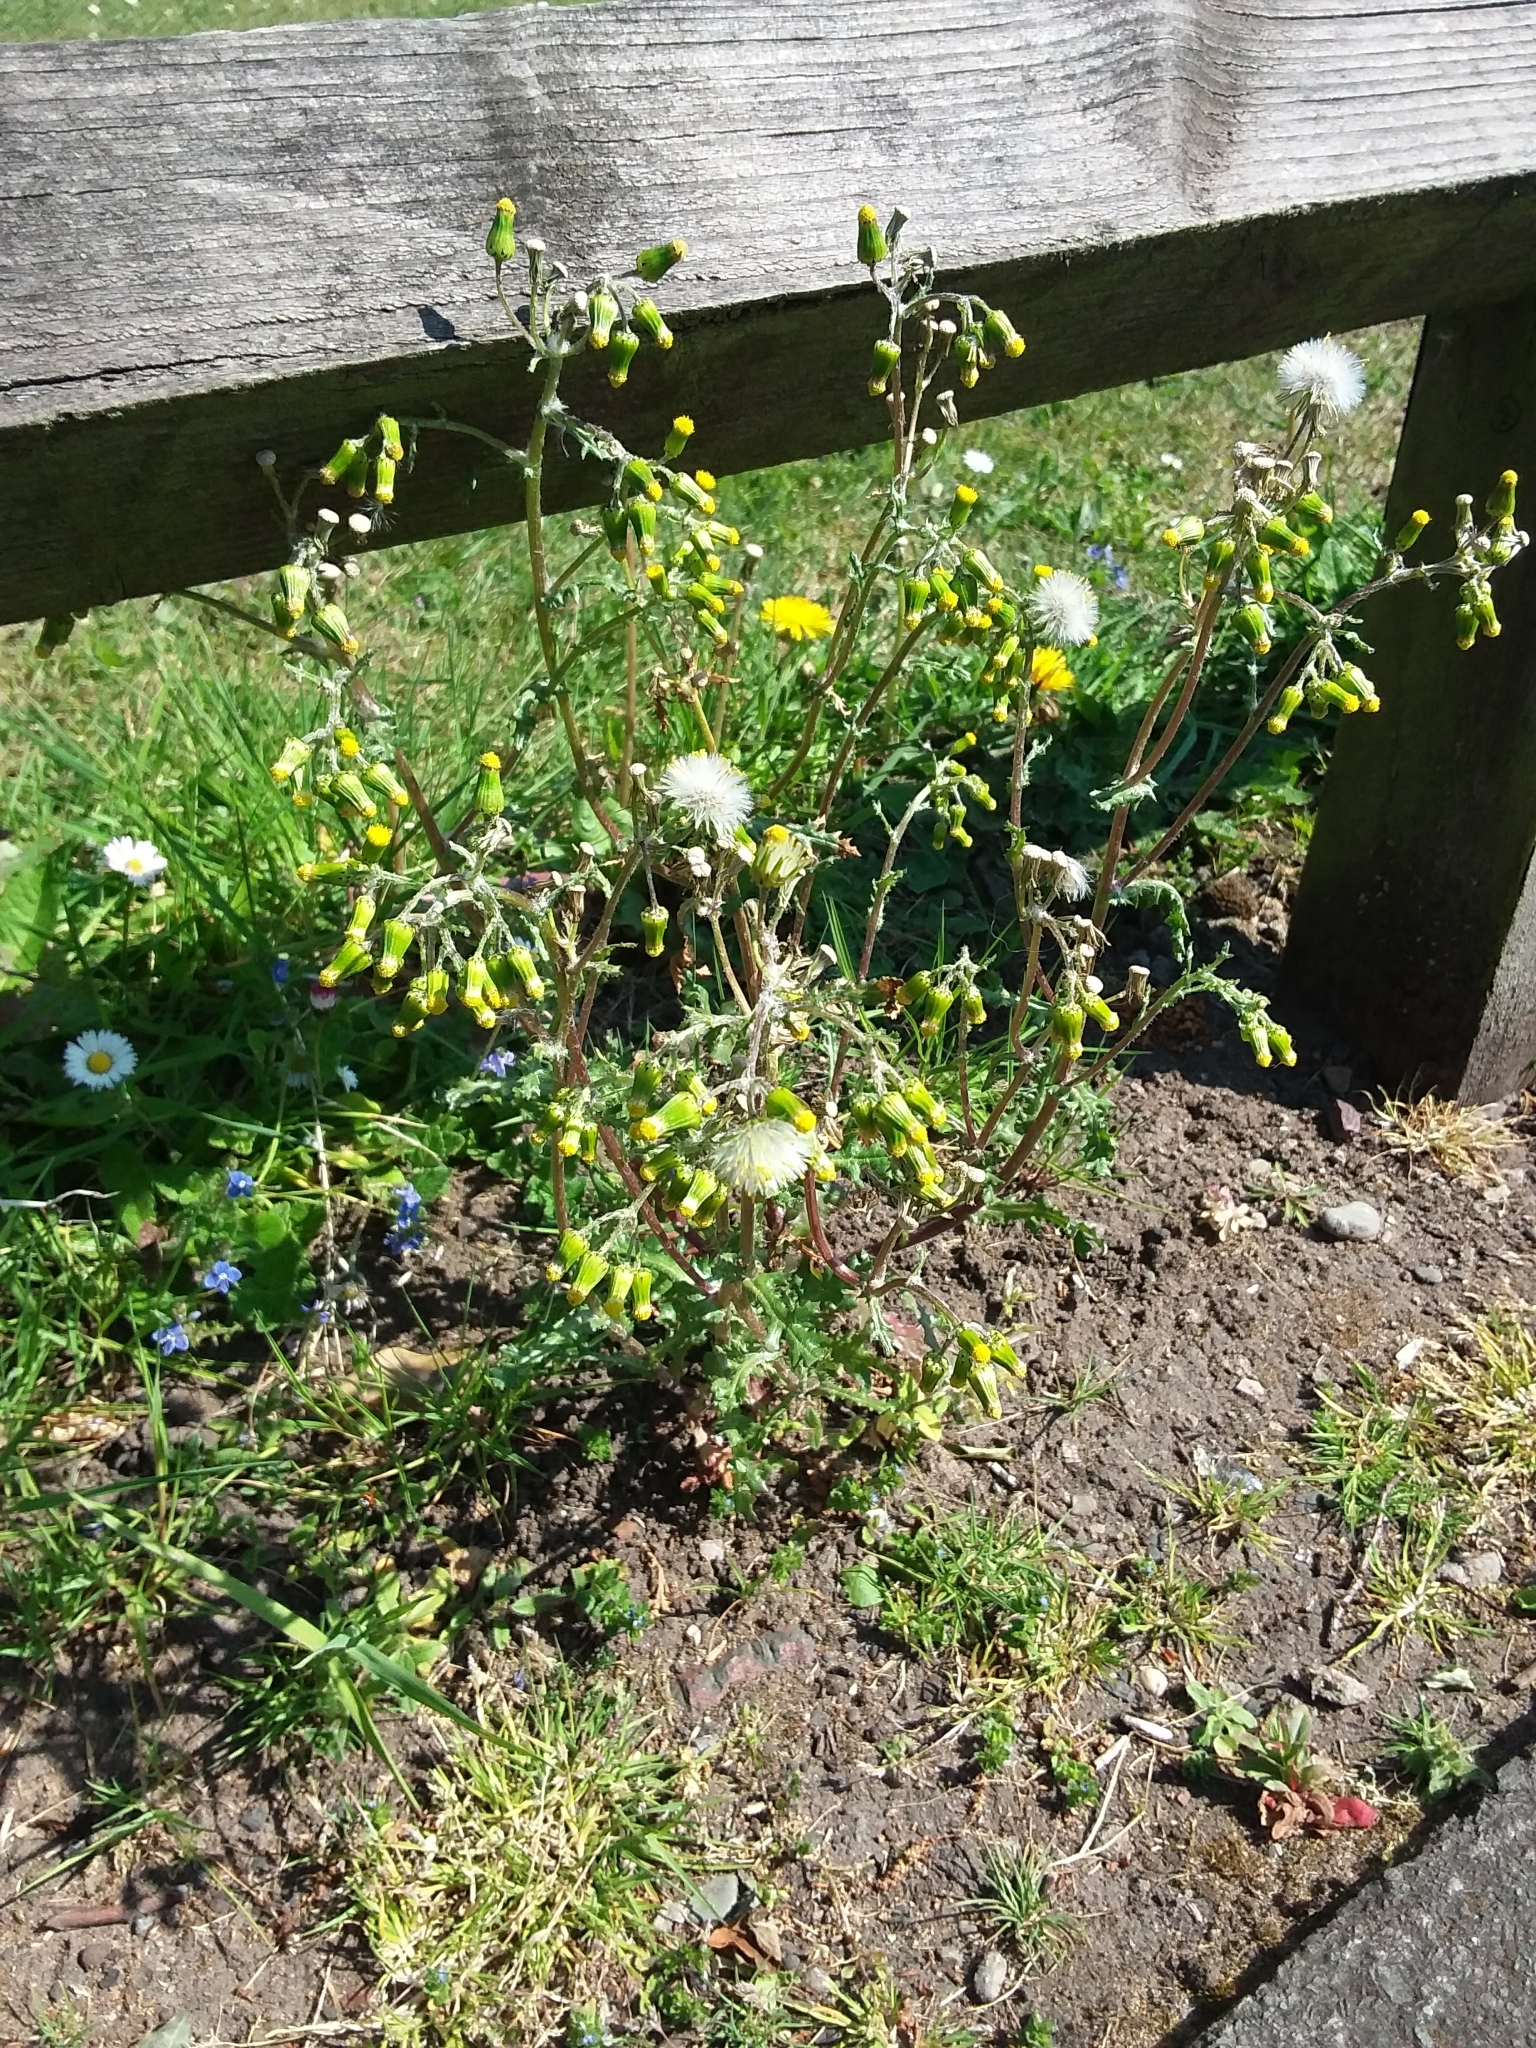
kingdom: Plantae
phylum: Tracheophyta
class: Magnoliopsida
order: Asterales
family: Asteraceae
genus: Senecio
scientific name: Senecio vulgaris
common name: Old-man-in-the-spring
